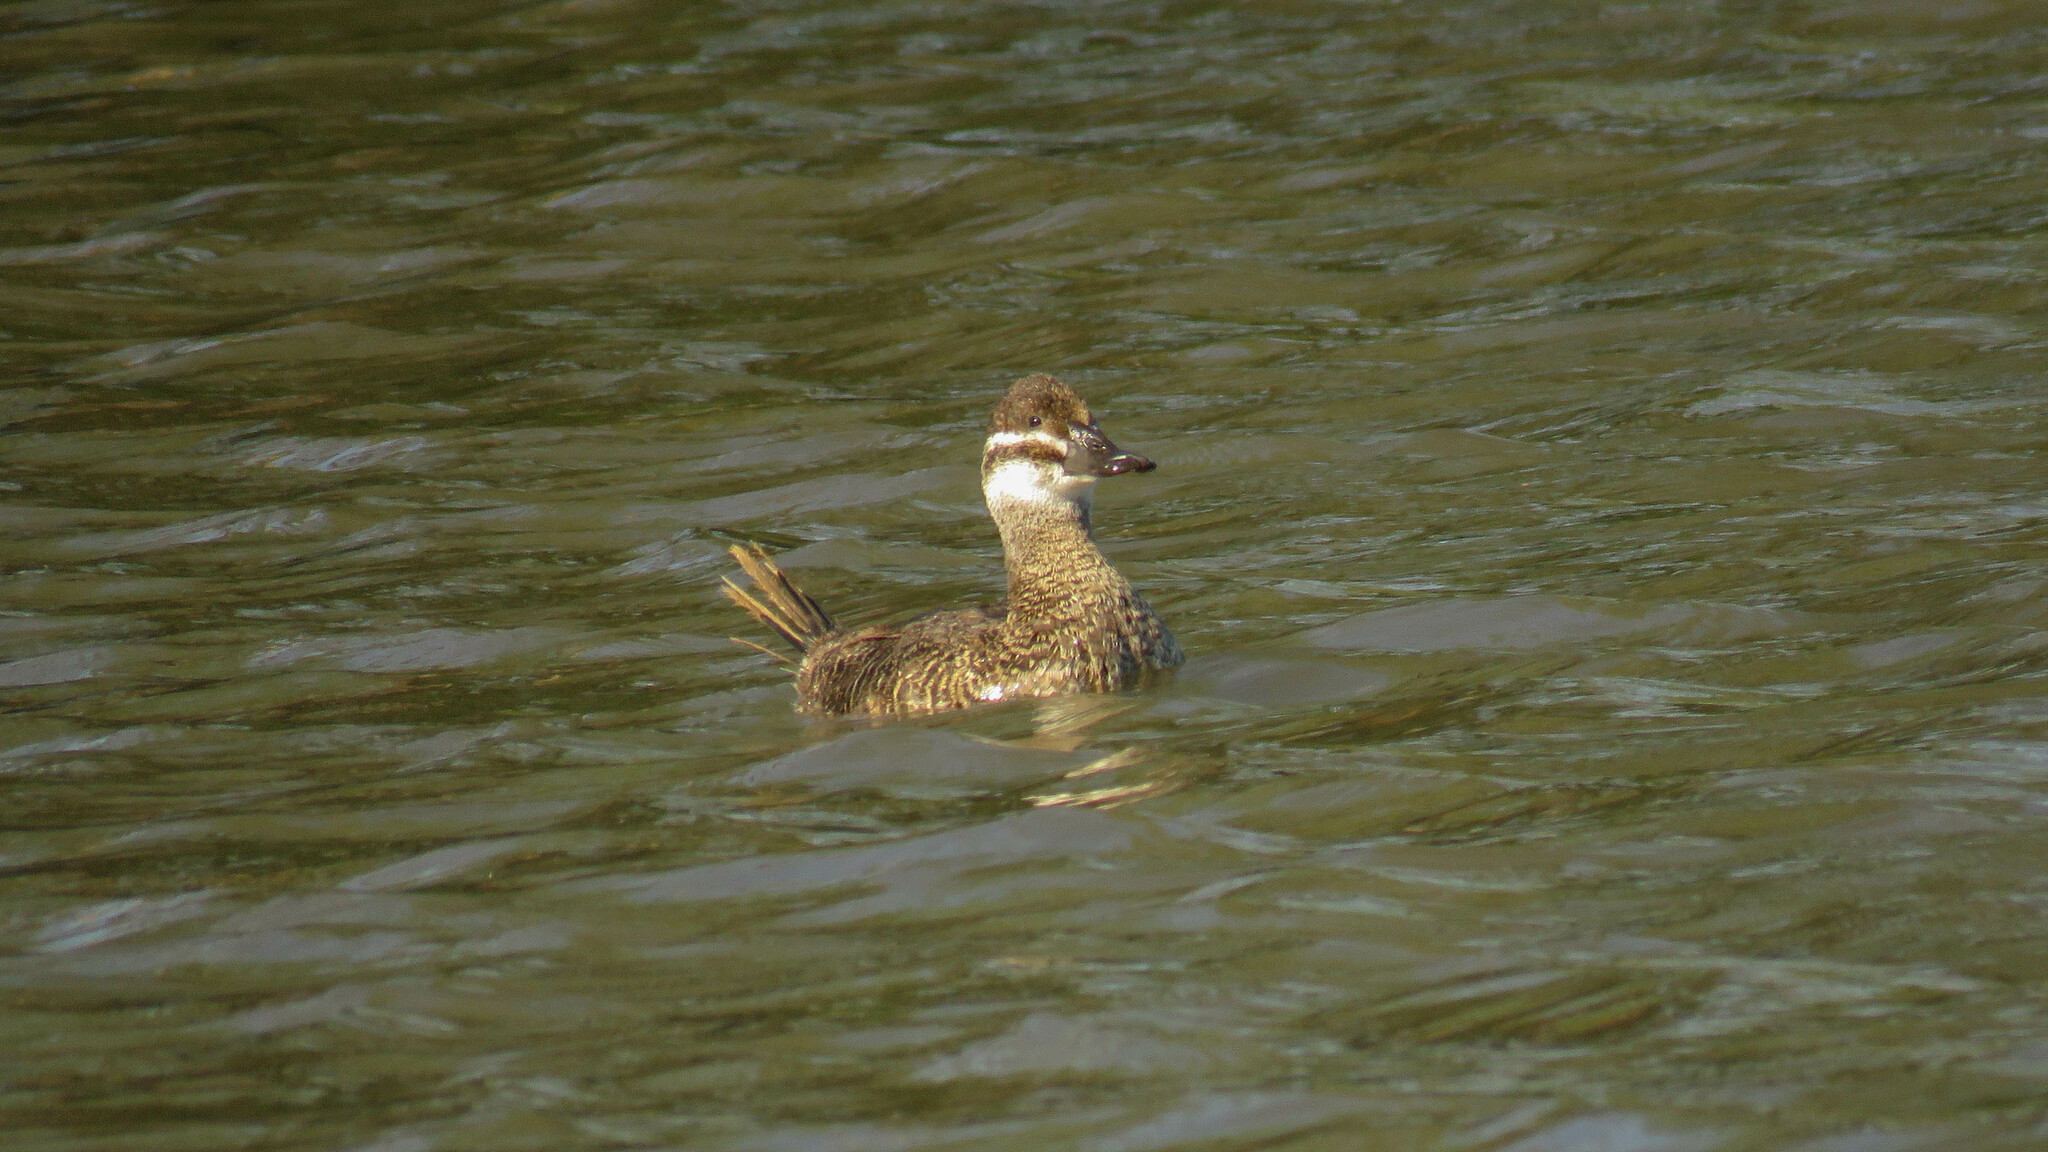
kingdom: Animalia
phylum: Chordata
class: Aves
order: Anseriformes
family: Anatidae
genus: Oxyura
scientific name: Oxyura vittata
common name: Lake duck
